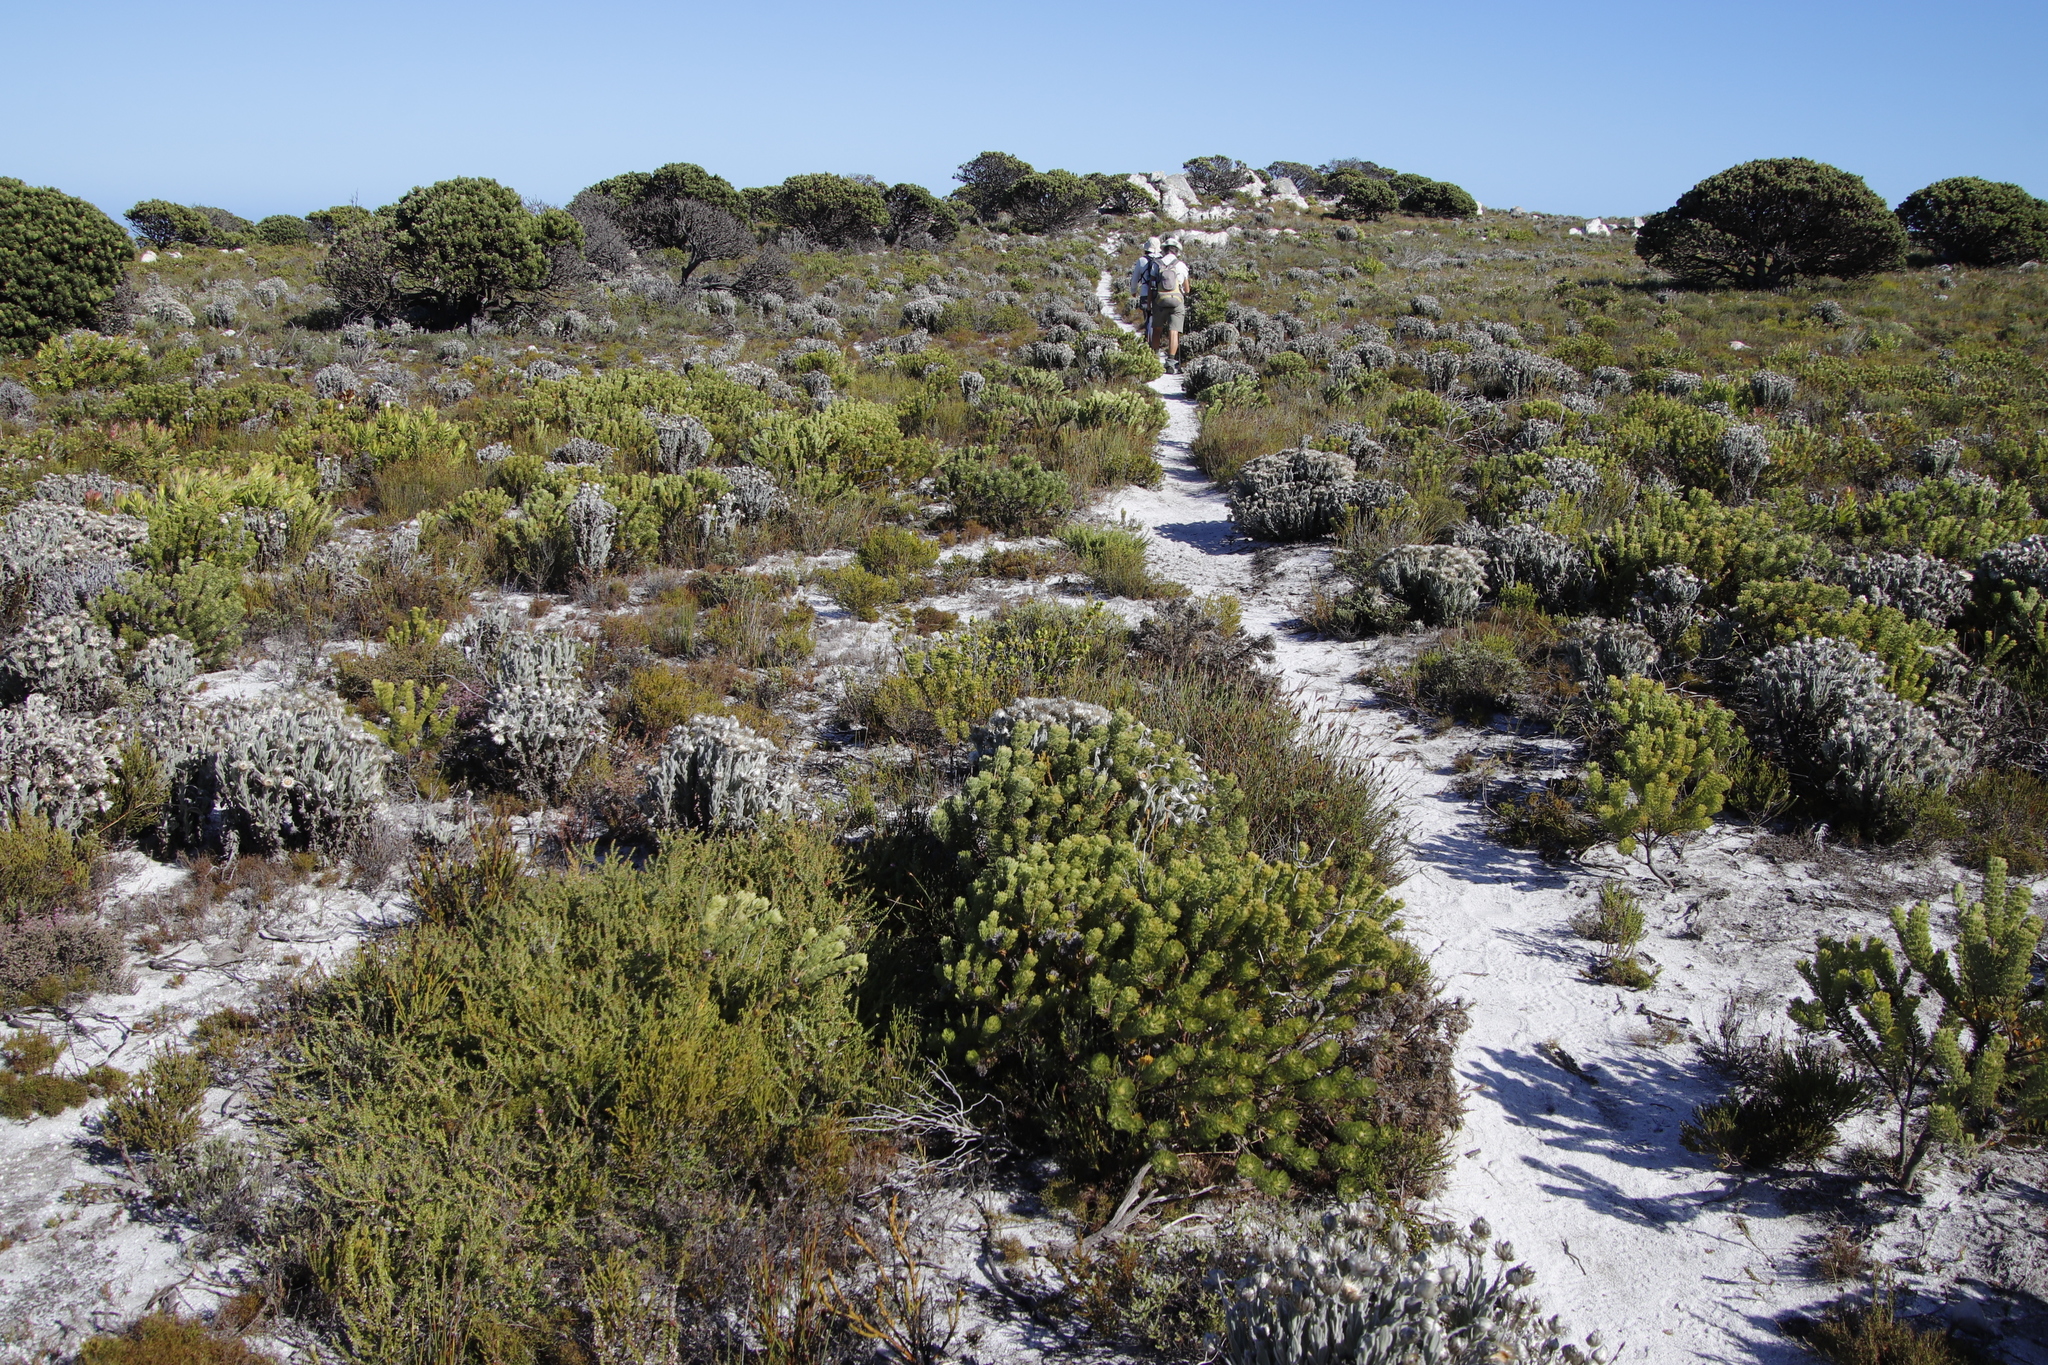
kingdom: Plantae
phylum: Tracheophyta
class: Magnoliopsida
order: Proteales
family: Proteaceae
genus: Serruria
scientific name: Serruria villosa
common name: Golden spiderhead
